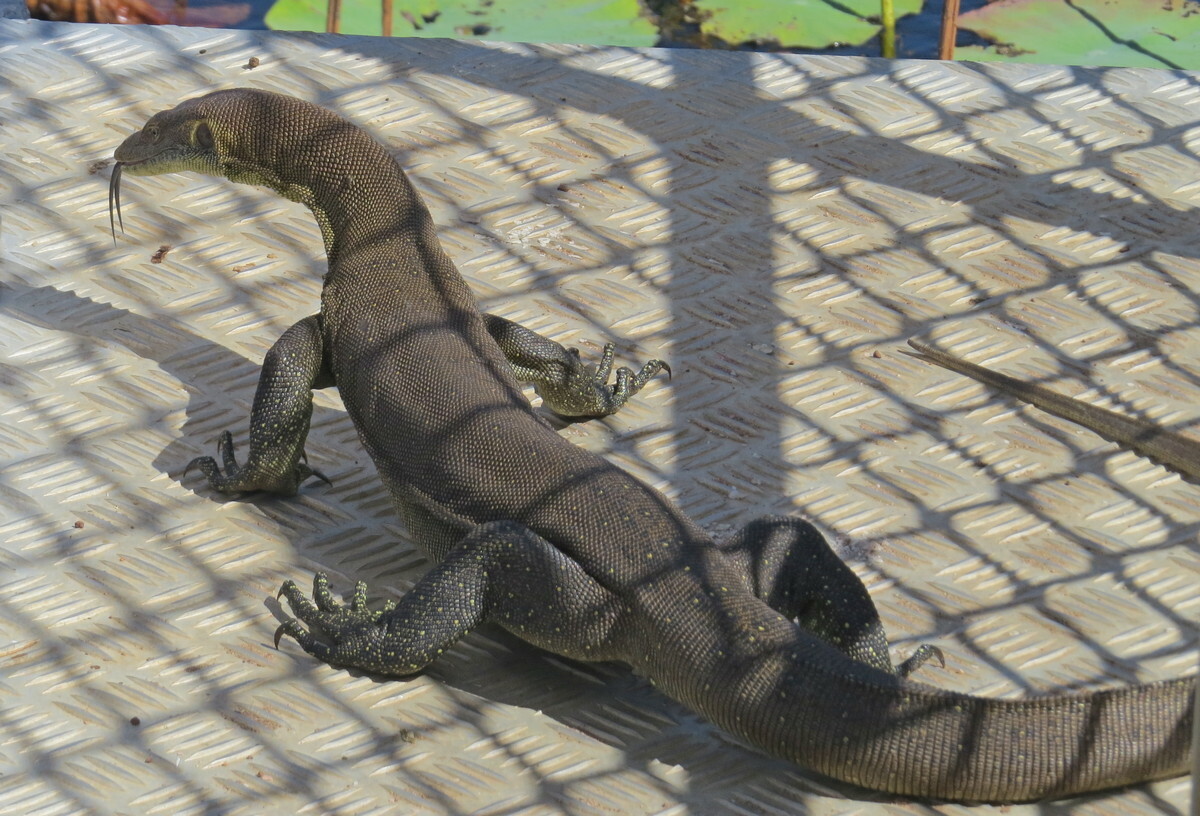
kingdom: Animalia
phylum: Chordata
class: Squamata
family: Varanidae
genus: Varanus
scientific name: Varanus mertensi
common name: Mertens's water monitor
